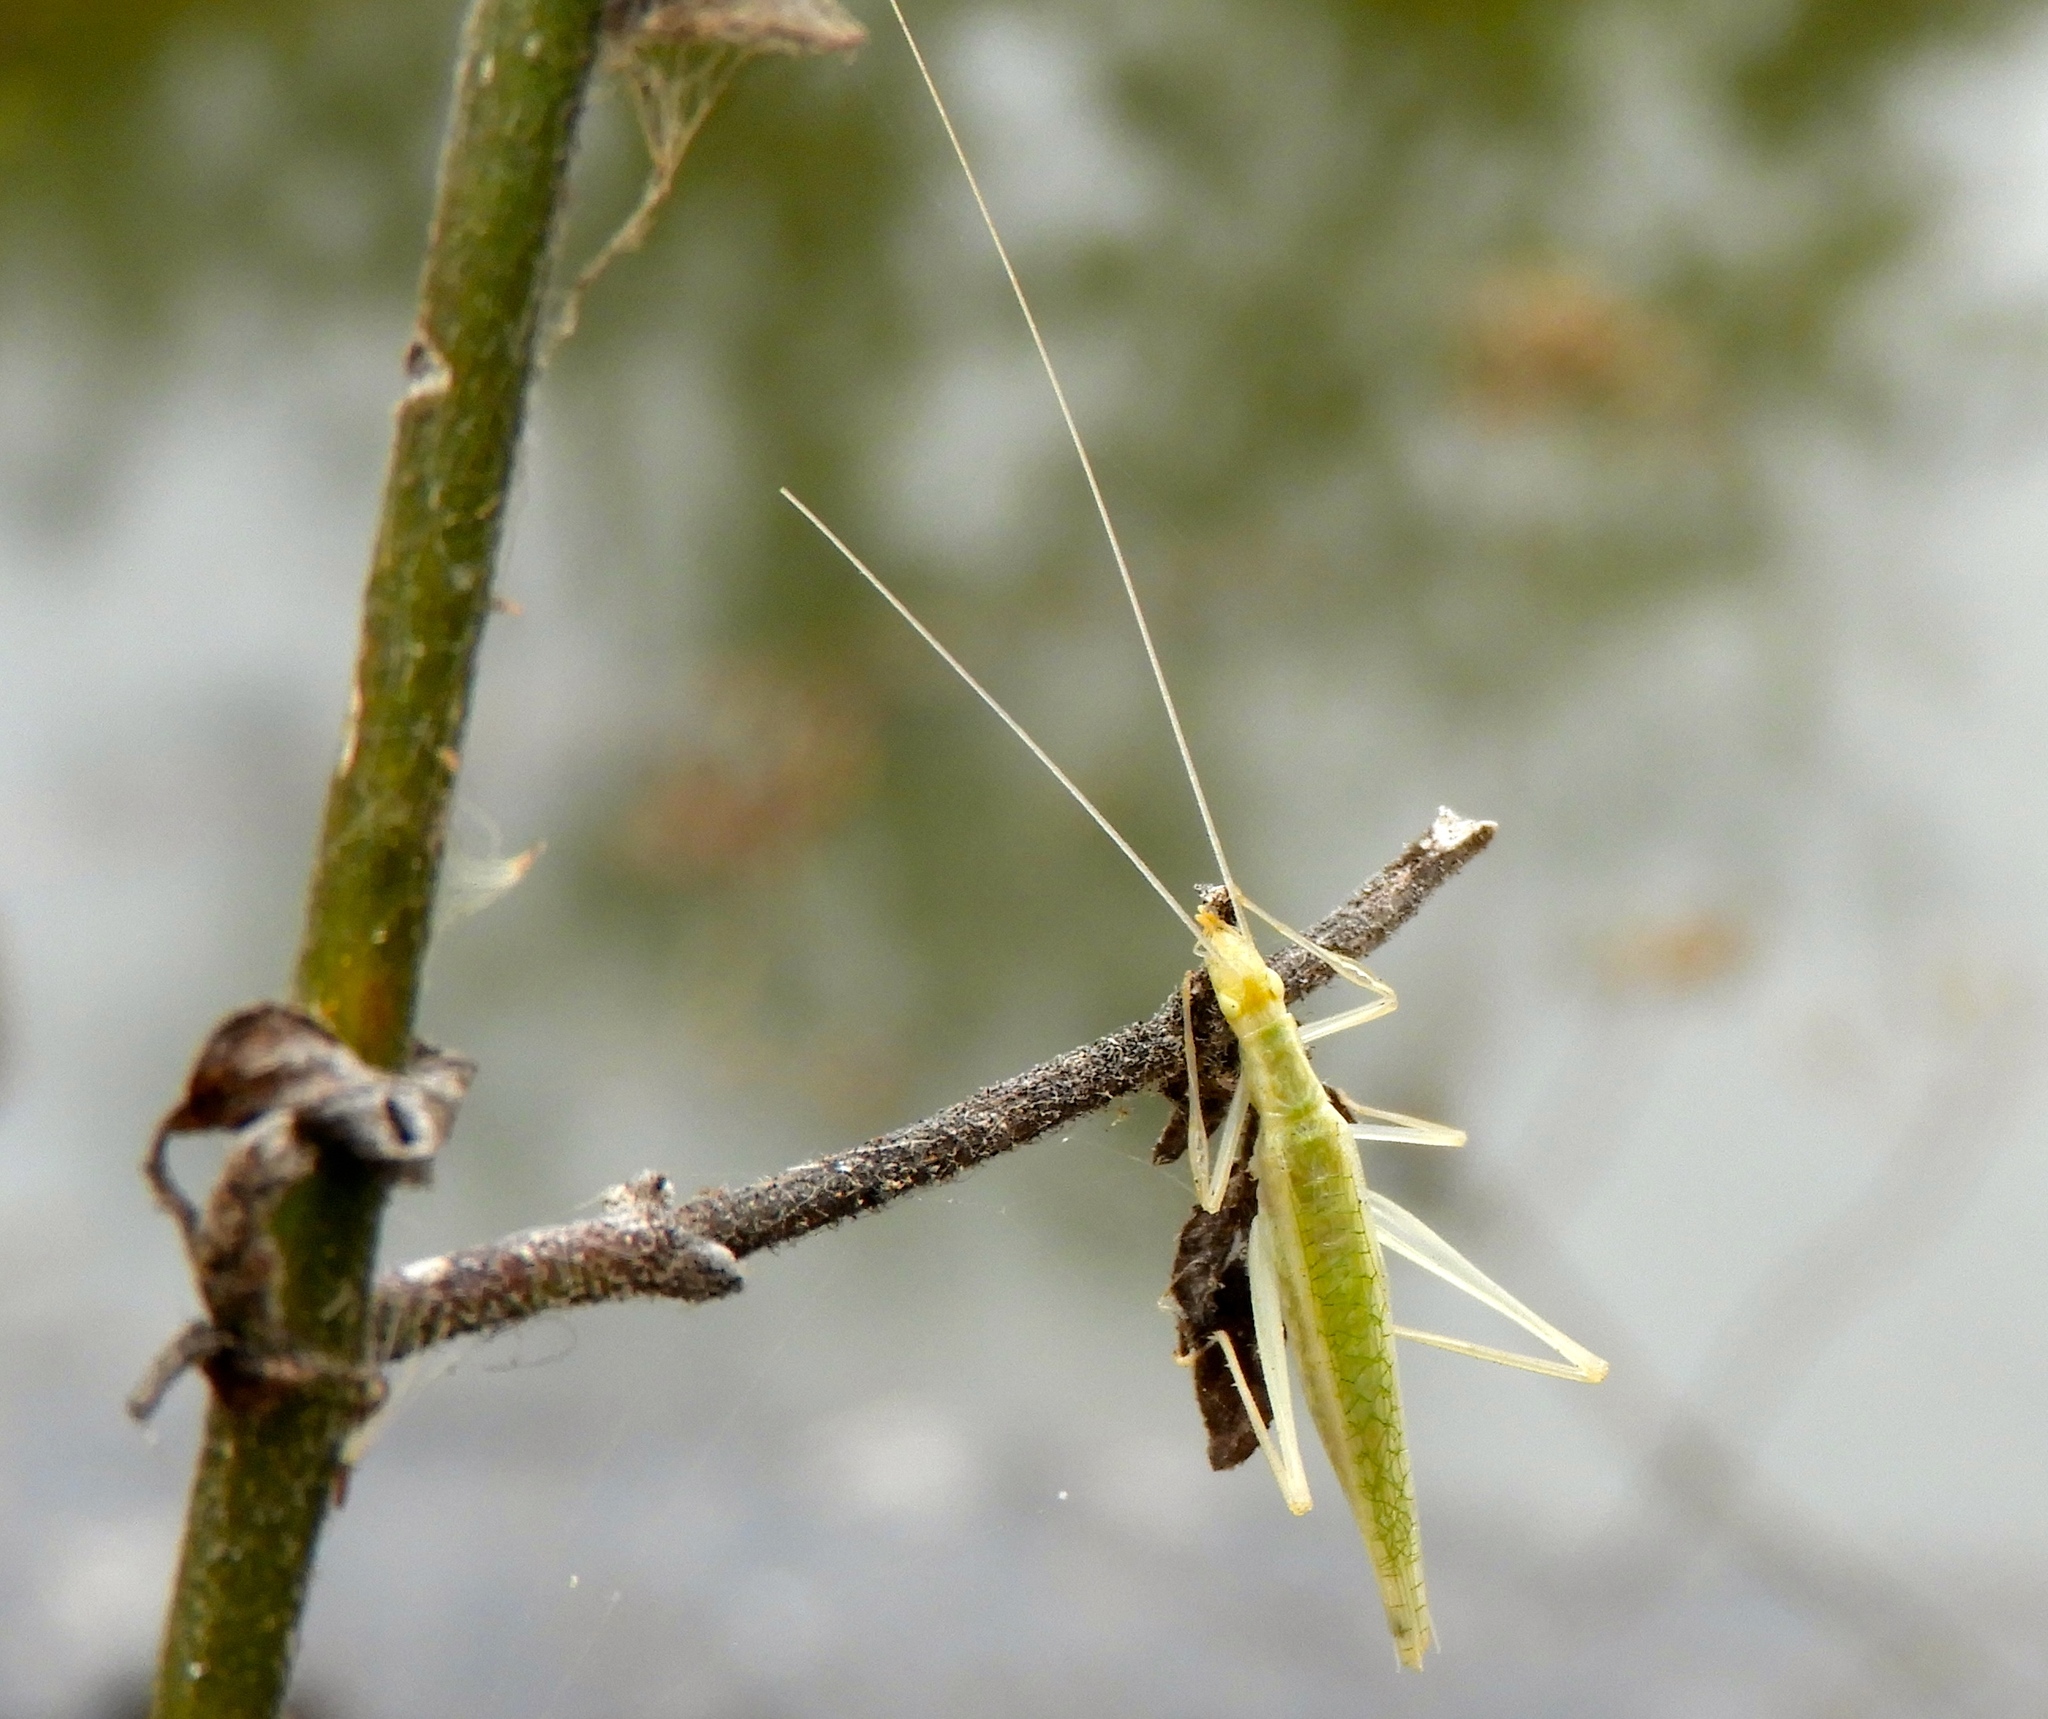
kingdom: Animalia
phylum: Arthropoda
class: Insecta
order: Orthoptera
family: Gryllidae
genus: Oecanthus
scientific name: Oecanthus
